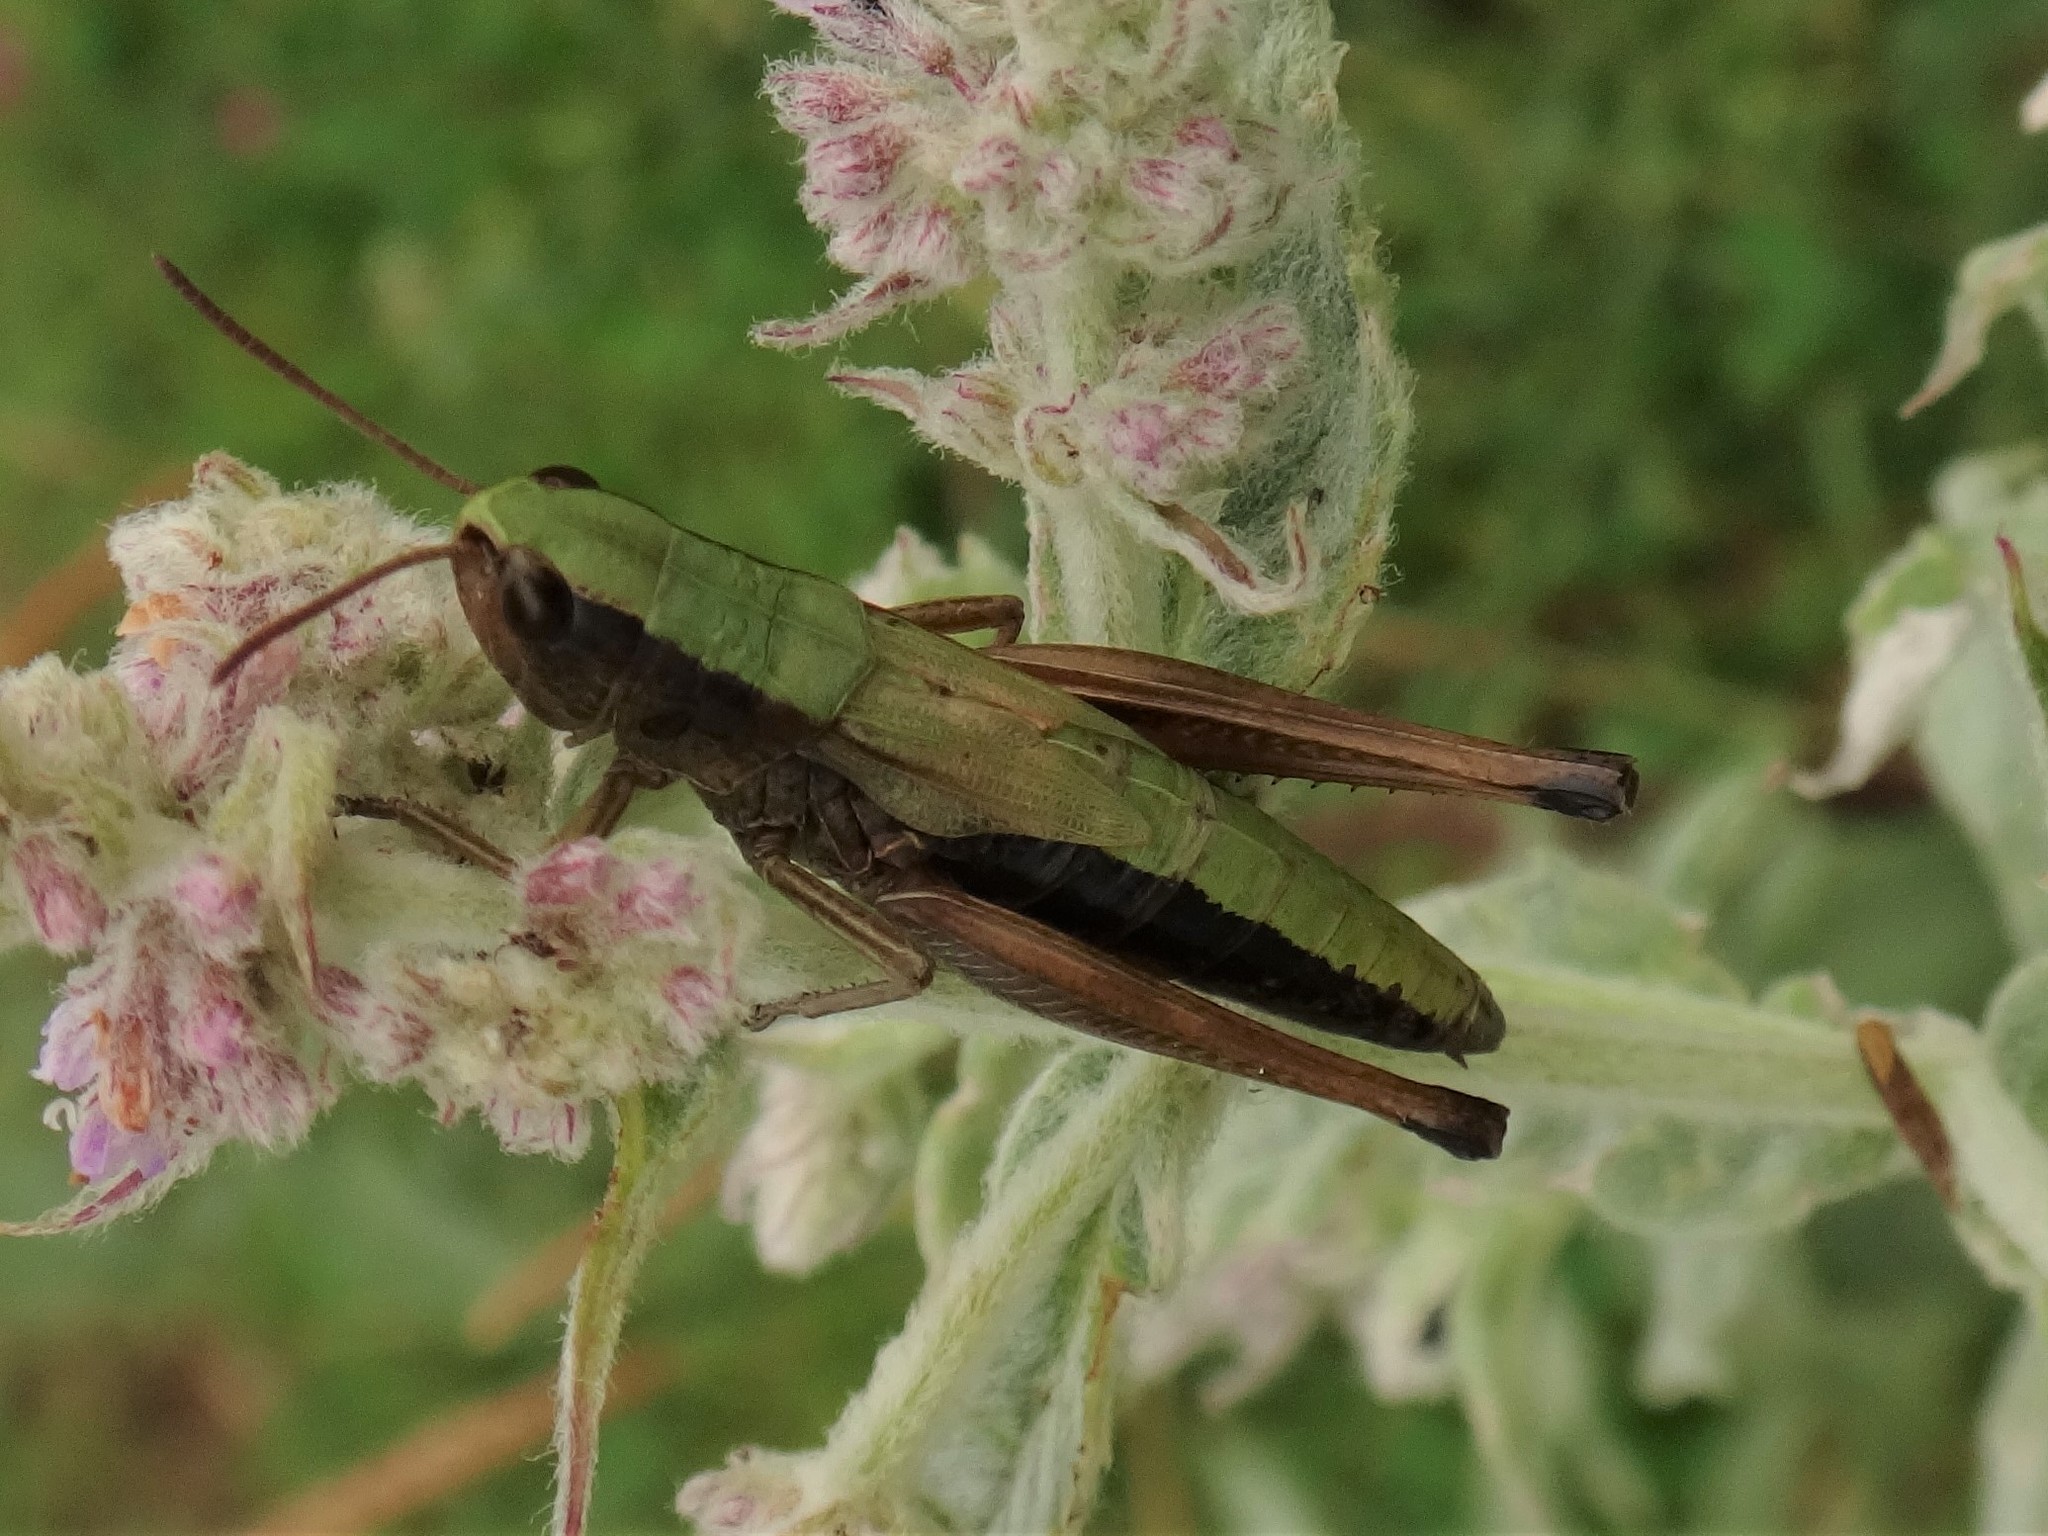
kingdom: Animalia
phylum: Arthropoda
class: Insecta
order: Orthoptera
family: Acrididae
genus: Pseudochorthippus
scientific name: Pseudochorthippus parallelus
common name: Meadow grasshopper
